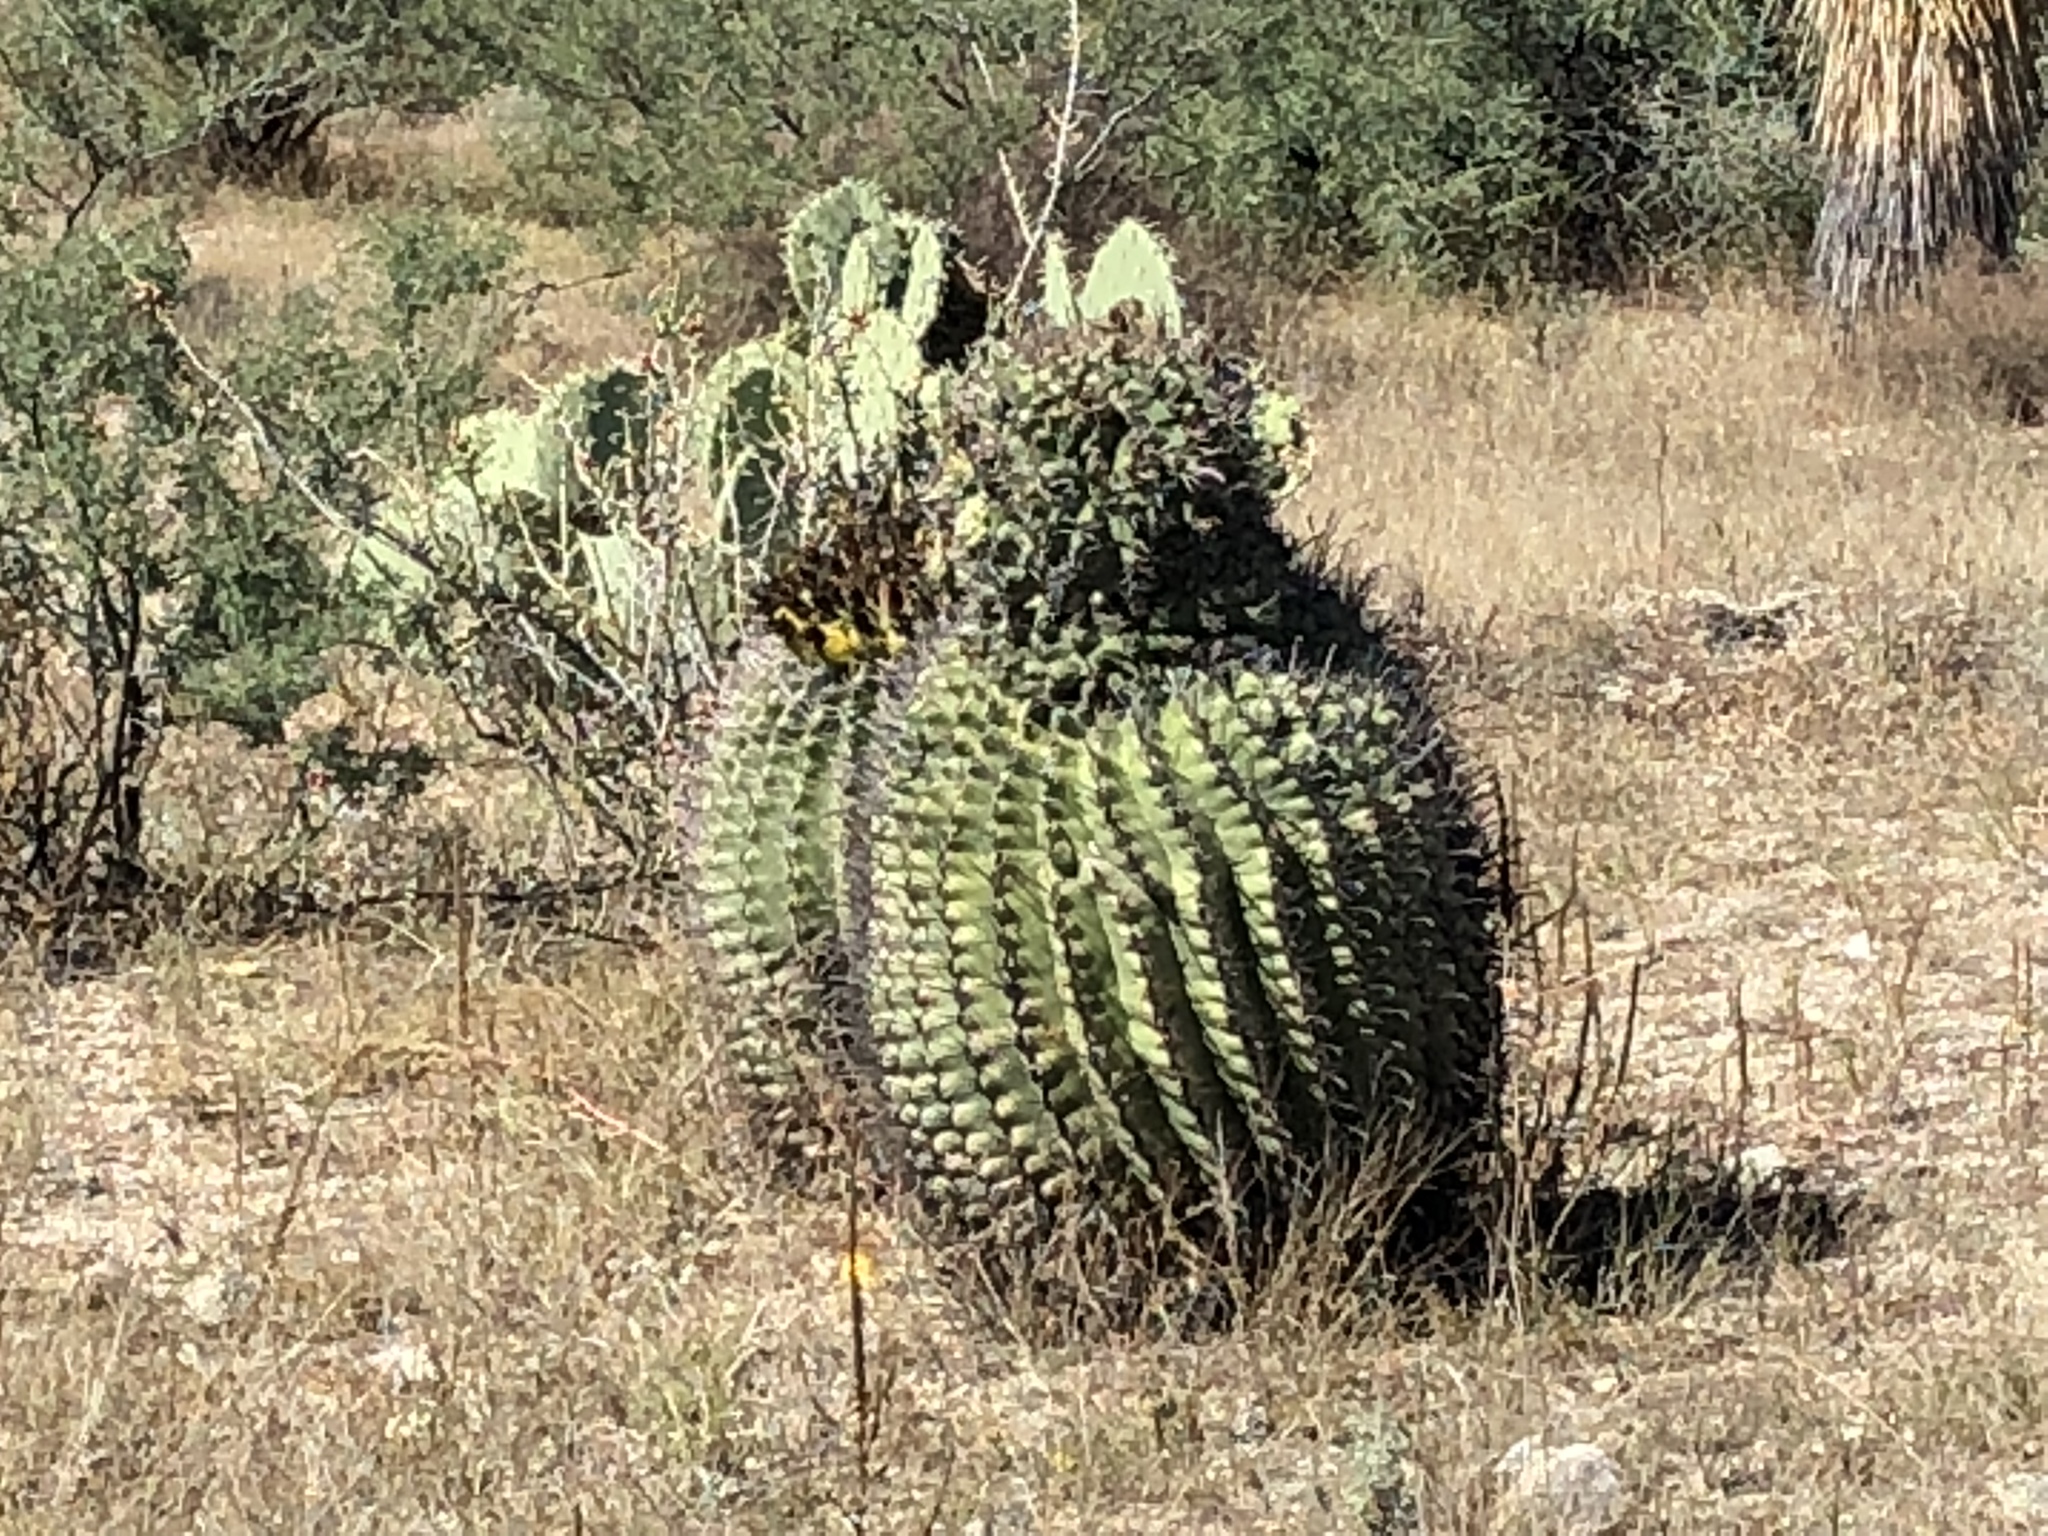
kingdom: Plantae
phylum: Tracheophyta
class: Magnoliopsida
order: Caryophyllales
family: Cactaceae
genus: Ferocactus
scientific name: Ferocactus wislizeni
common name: Candy barrel cactus
